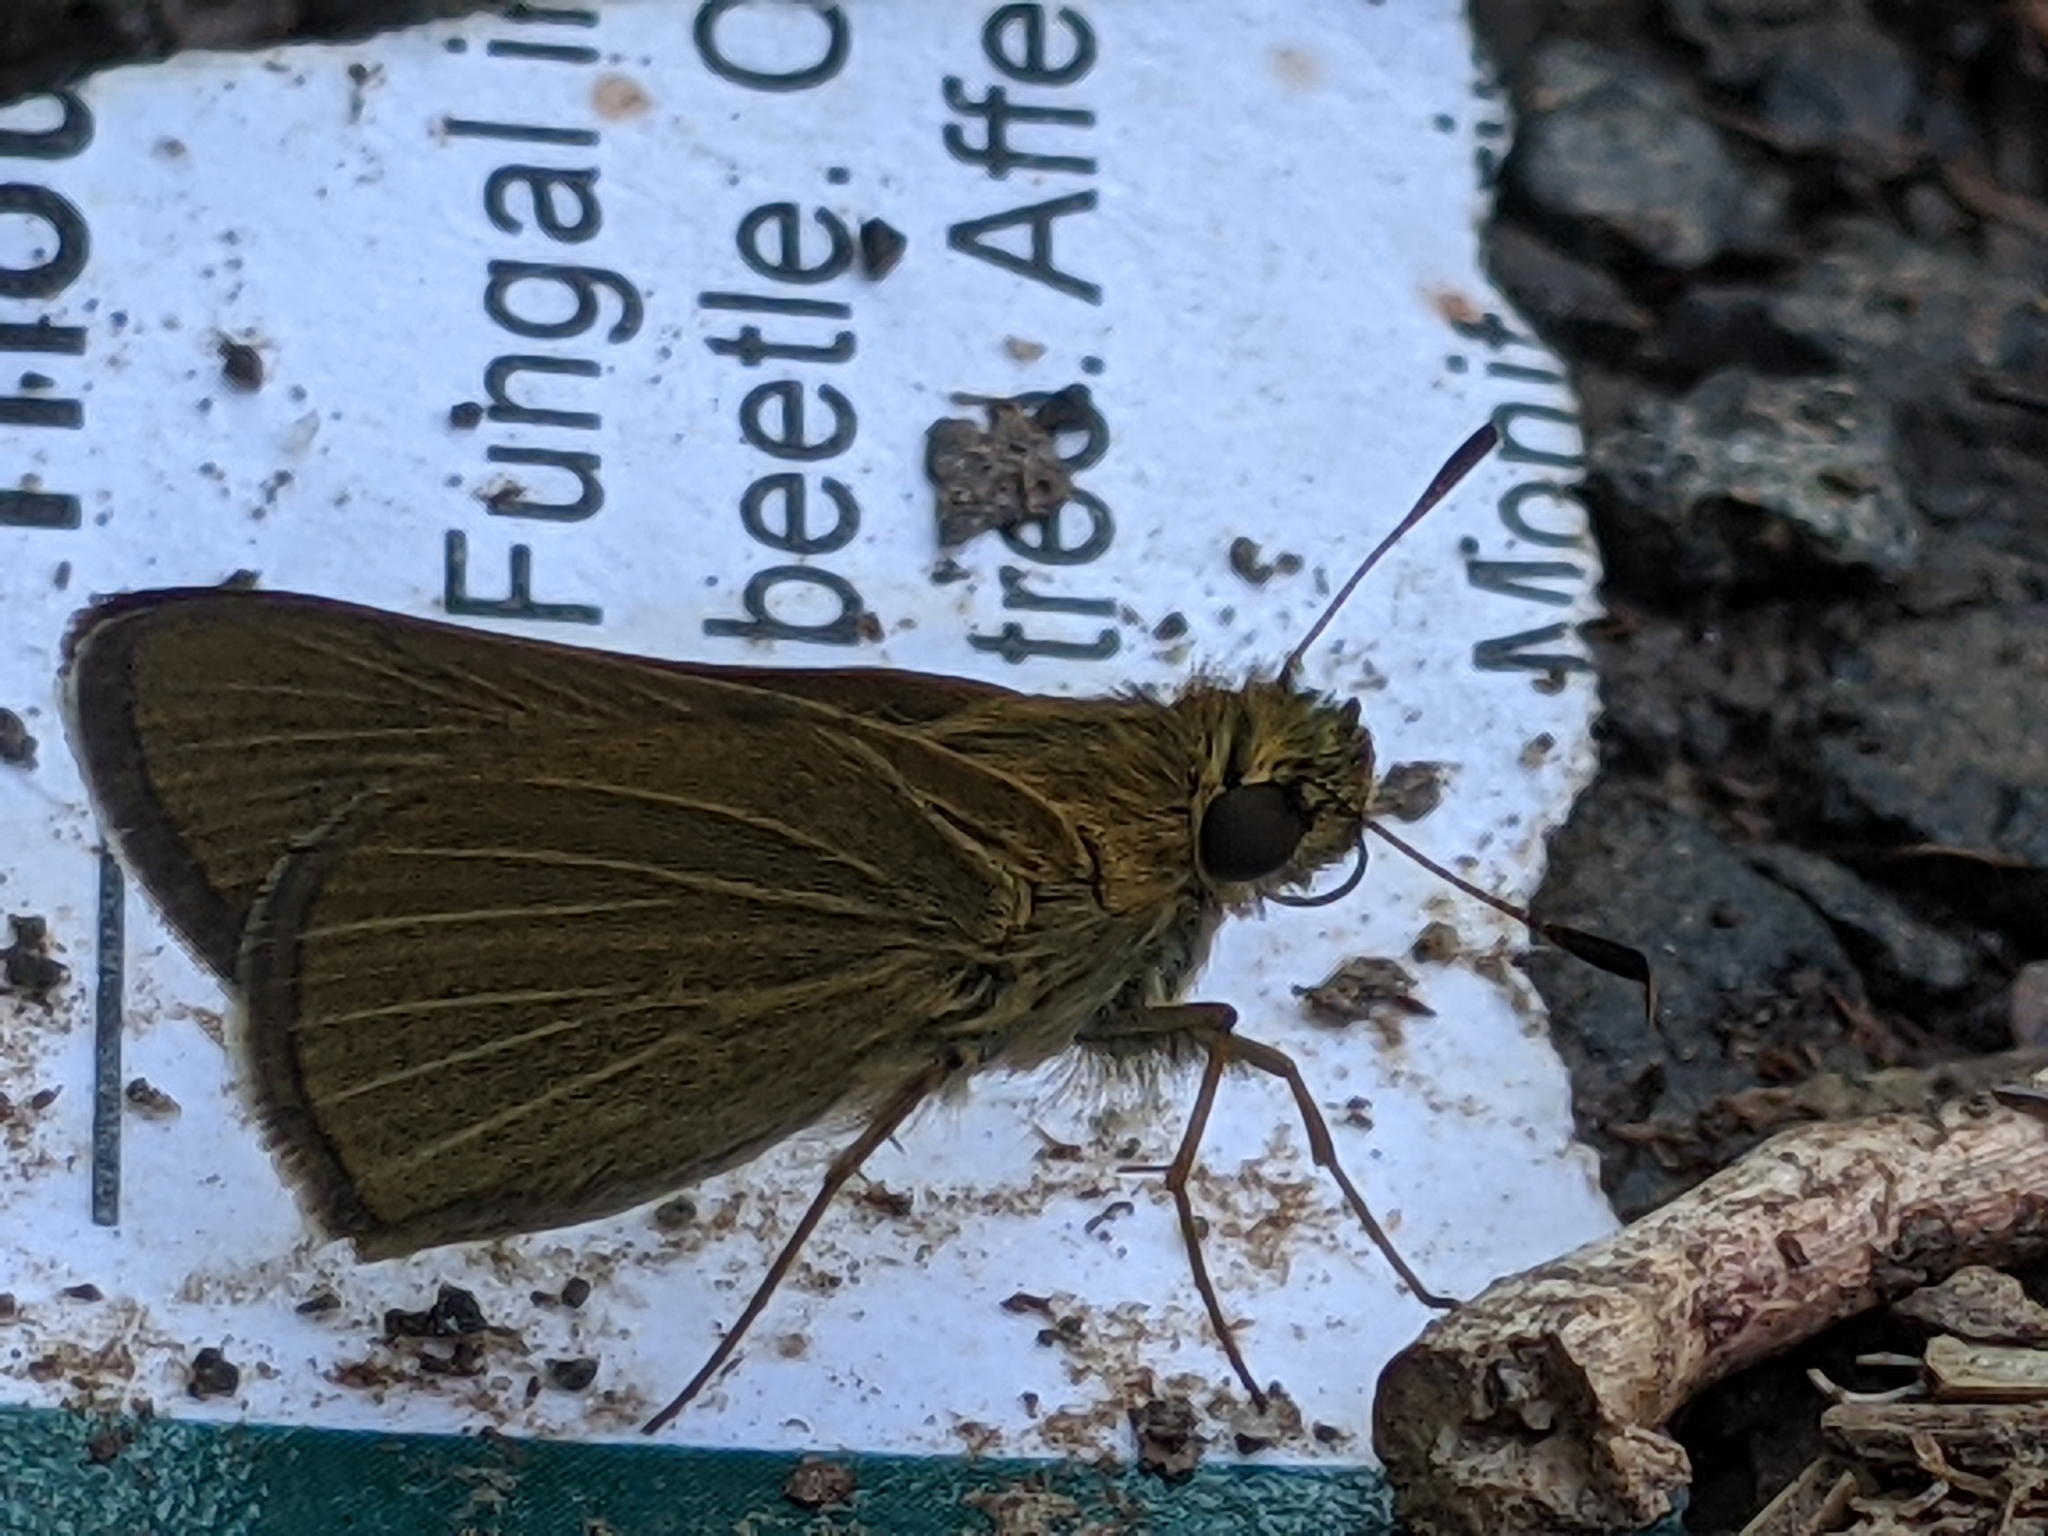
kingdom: Animalia
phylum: Arthropoda
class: Insecta
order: Lepidoptera
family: Hesperiidae
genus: Nastra
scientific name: Nastra lherminier
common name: Swarthy skipper
